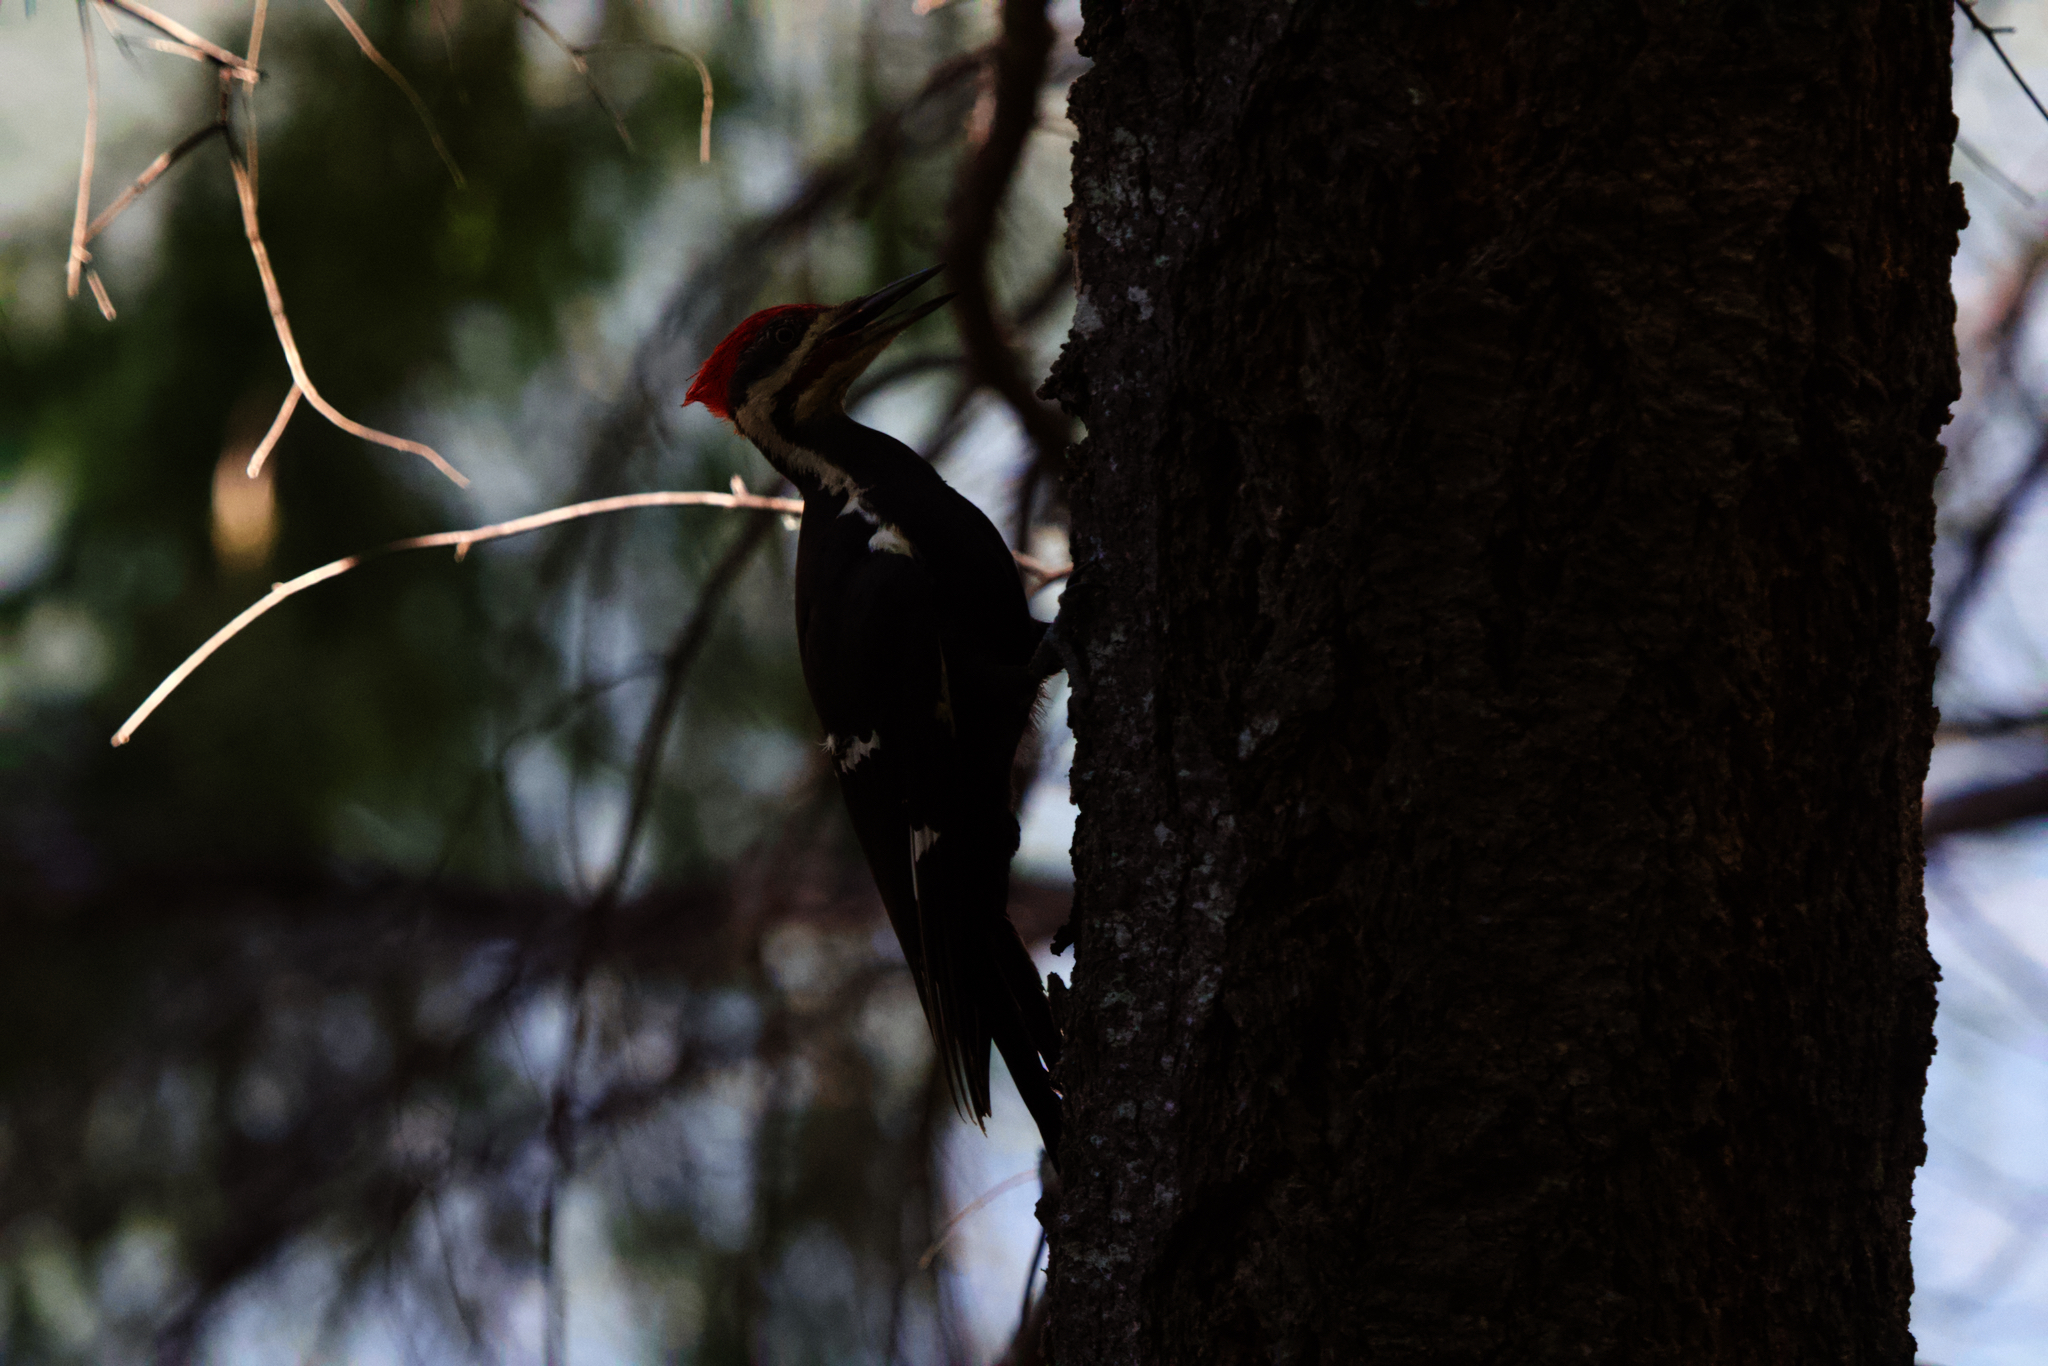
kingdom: Animalia
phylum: Chordata
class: Aves
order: Piciformes
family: Picidae
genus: Dryocopus
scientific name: Dryocopus pileatus
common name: Pileated woodpecker
